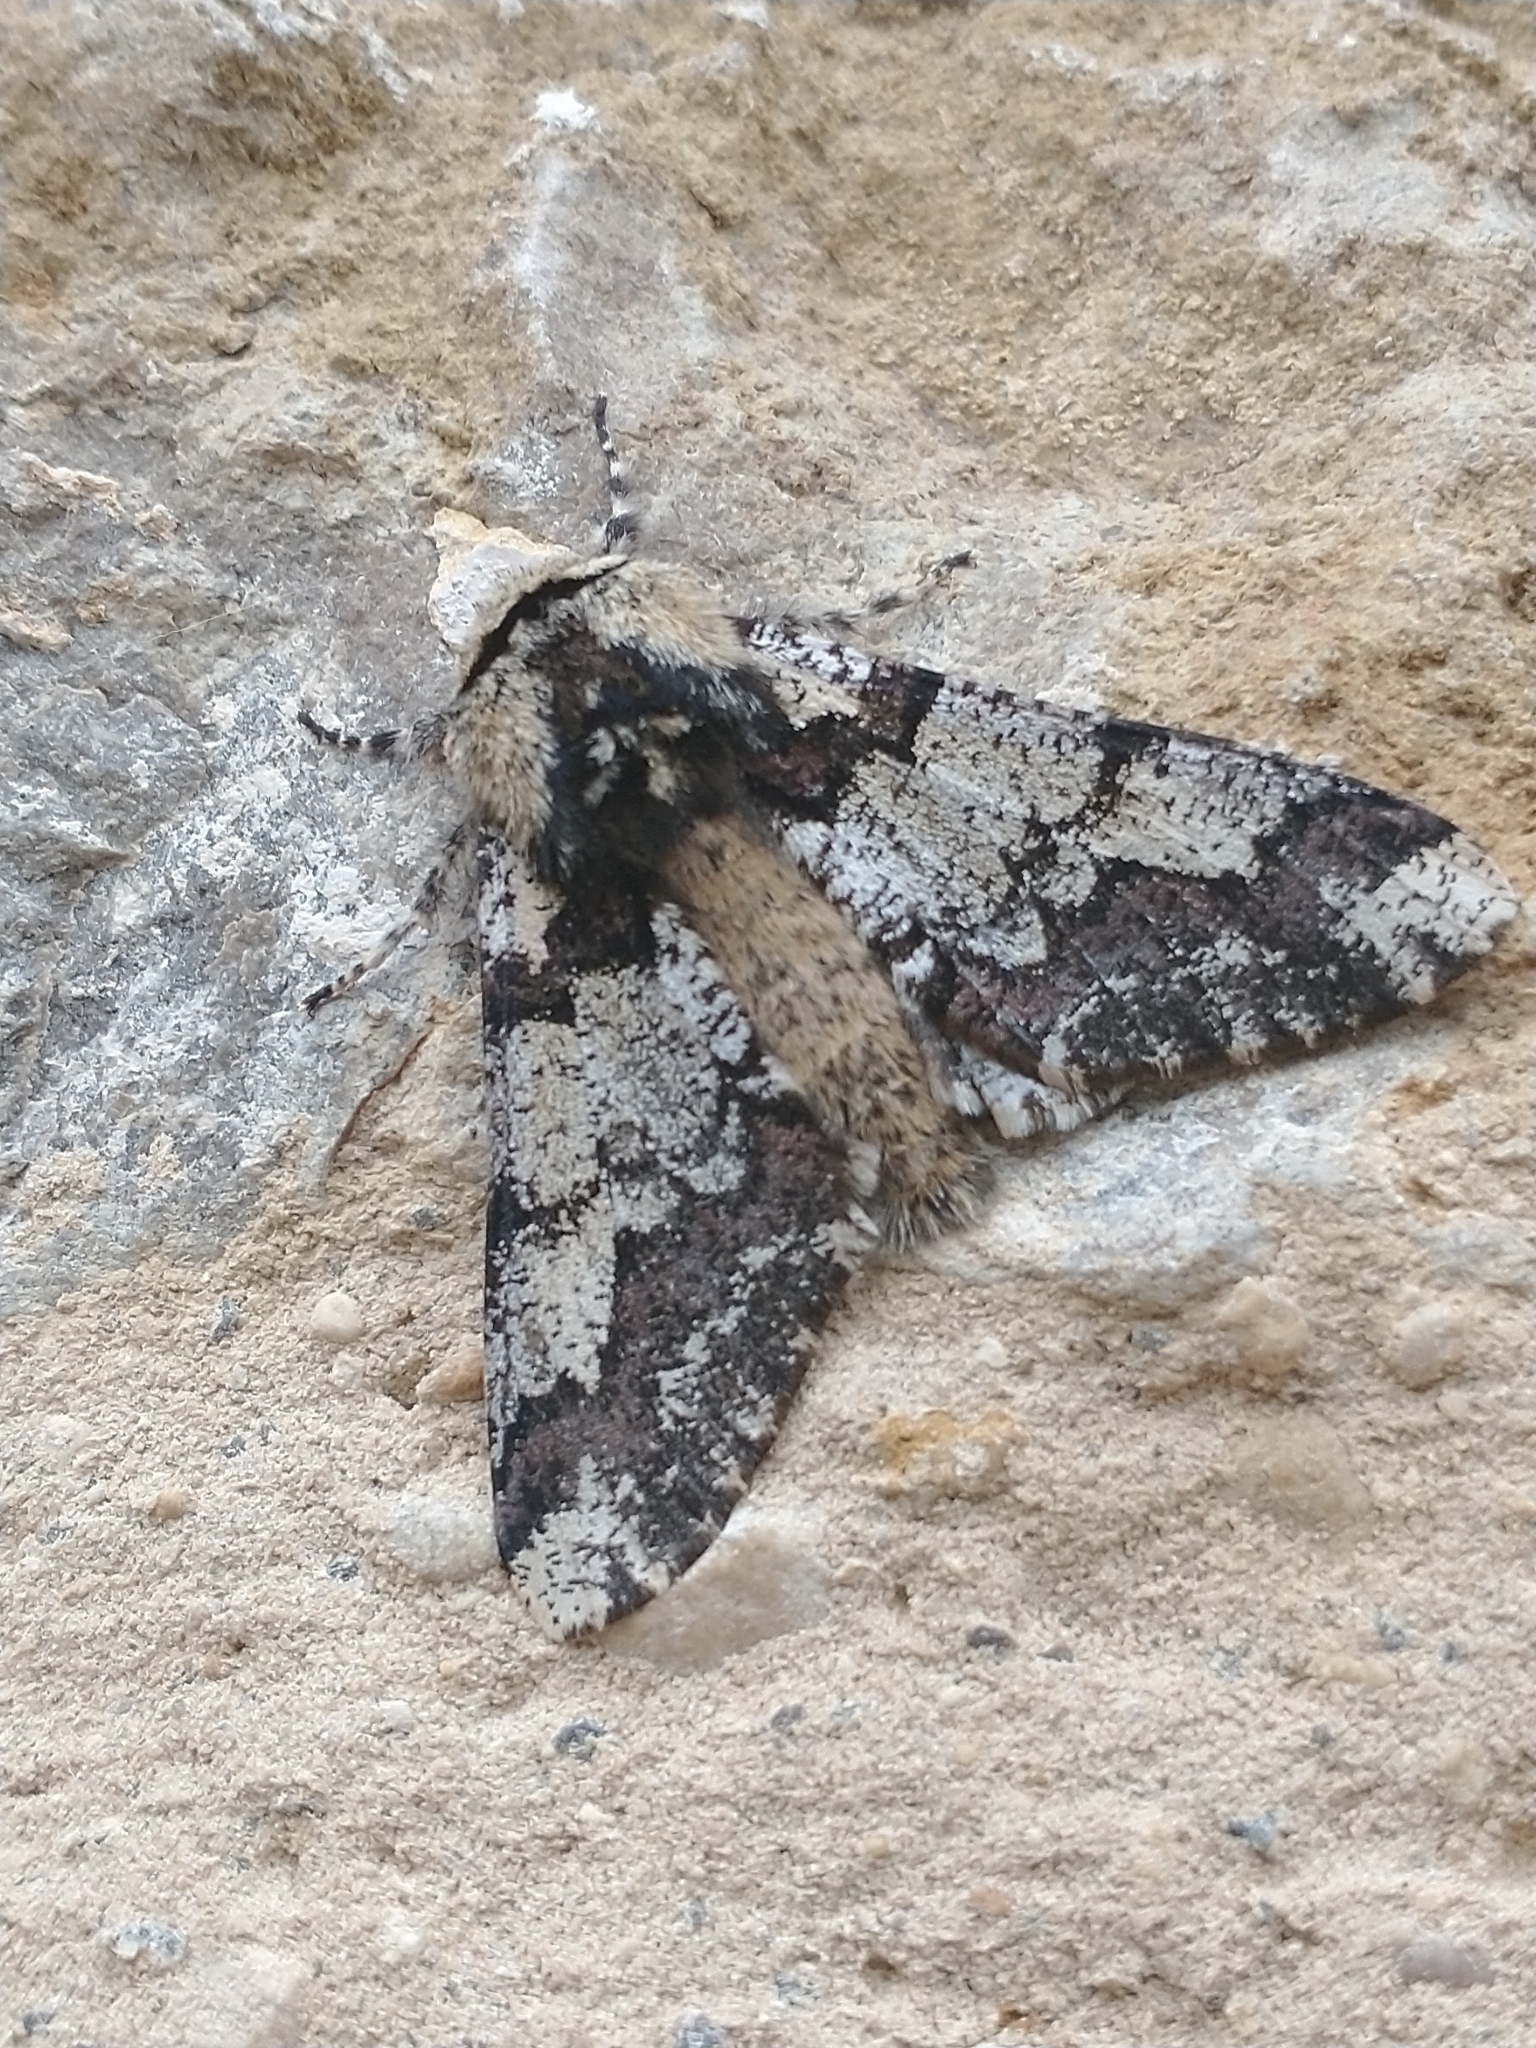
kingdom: Animalia
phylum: Arthropoda
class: Insecta
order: Lepidoptera
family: Geometridae
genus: Biston
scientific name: Biston strataria
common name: Oak beauty
